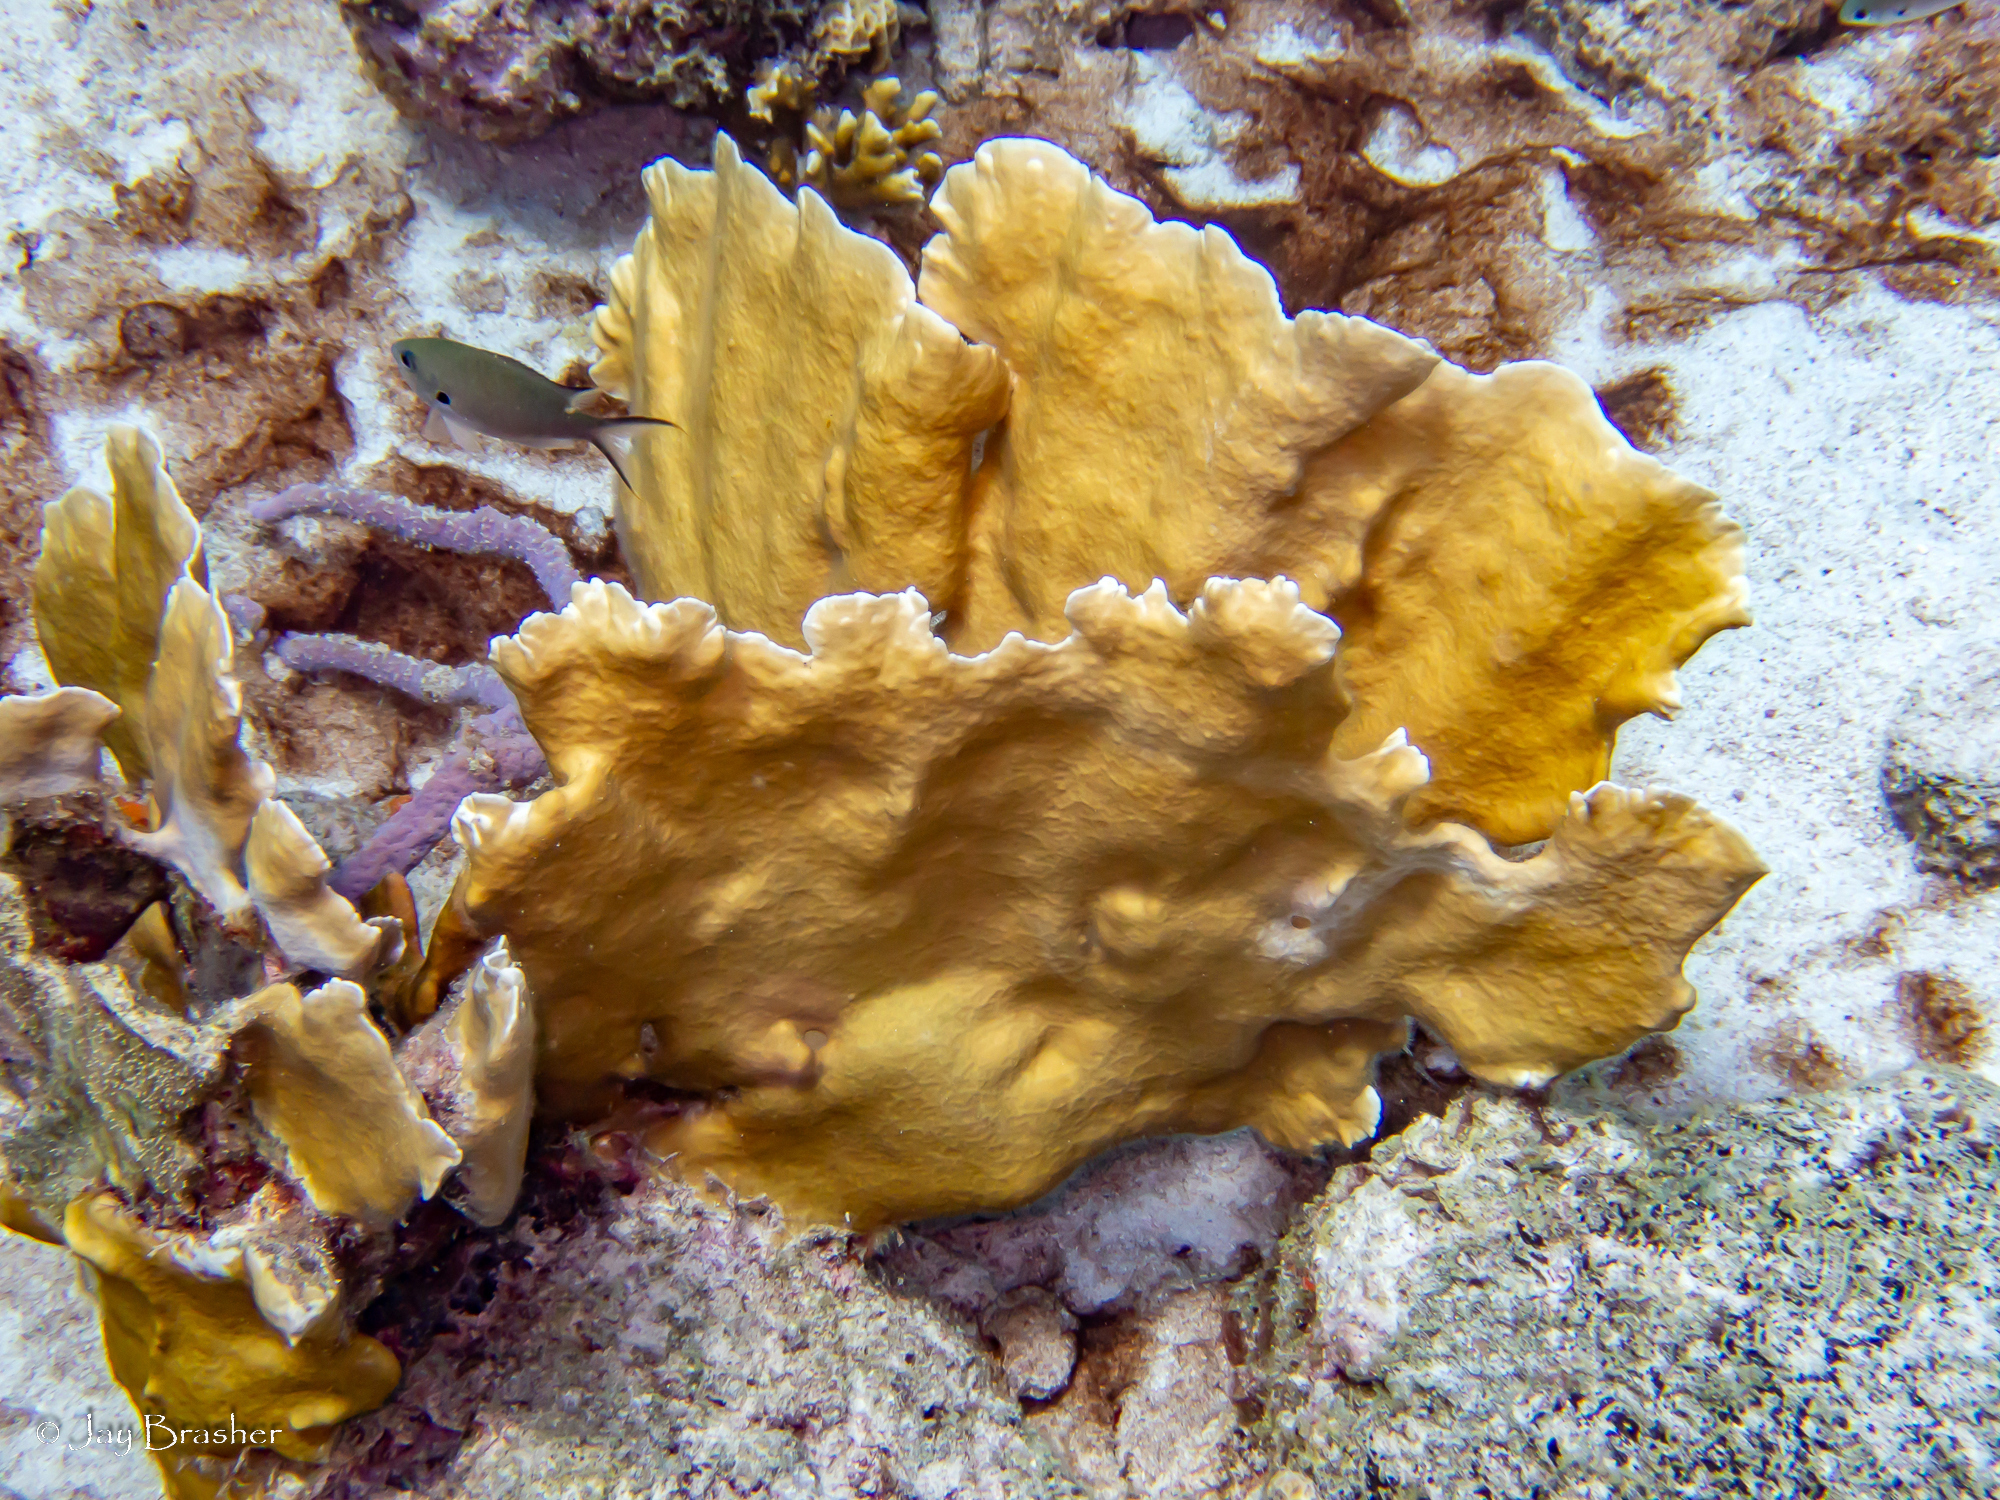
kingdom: Animalia
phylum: Cnidaria
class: Hydrozoa
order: Anthoathecata
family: Milleporidae
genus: Millepora
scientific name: Millepora complanata
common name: Bladed fire coral
